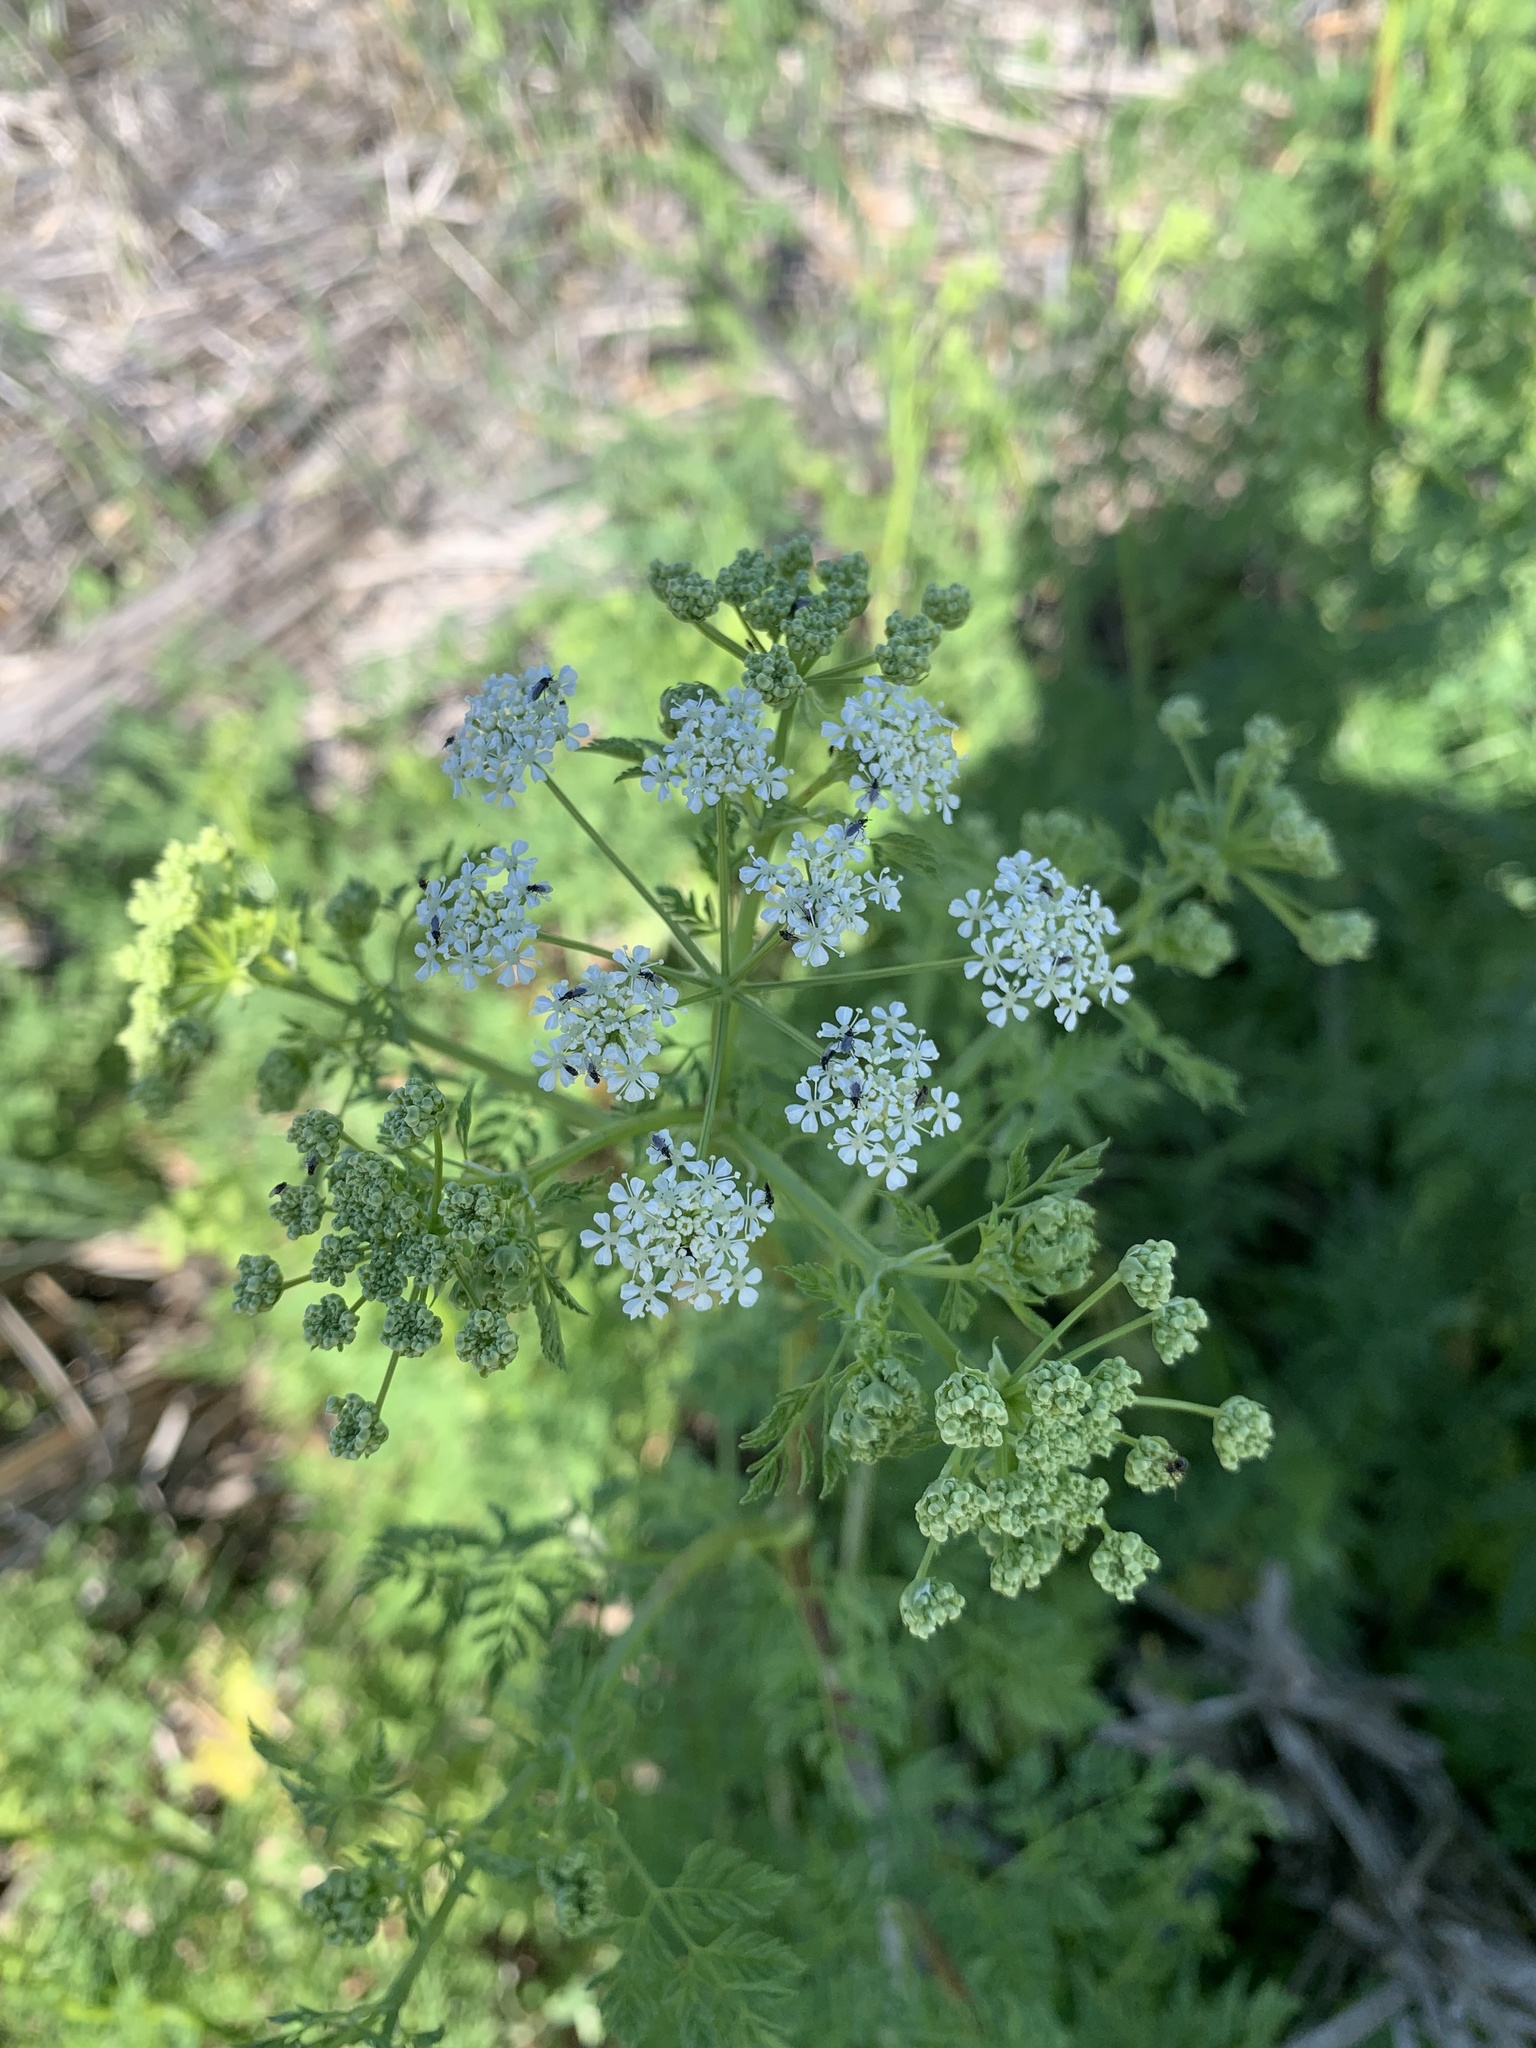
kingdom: Plantae
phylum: Tracheophyta
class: Magnoliopsida
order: Apiales
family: Apiaceae
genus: Conium
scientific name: Conium maculatum
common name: Hemlock
